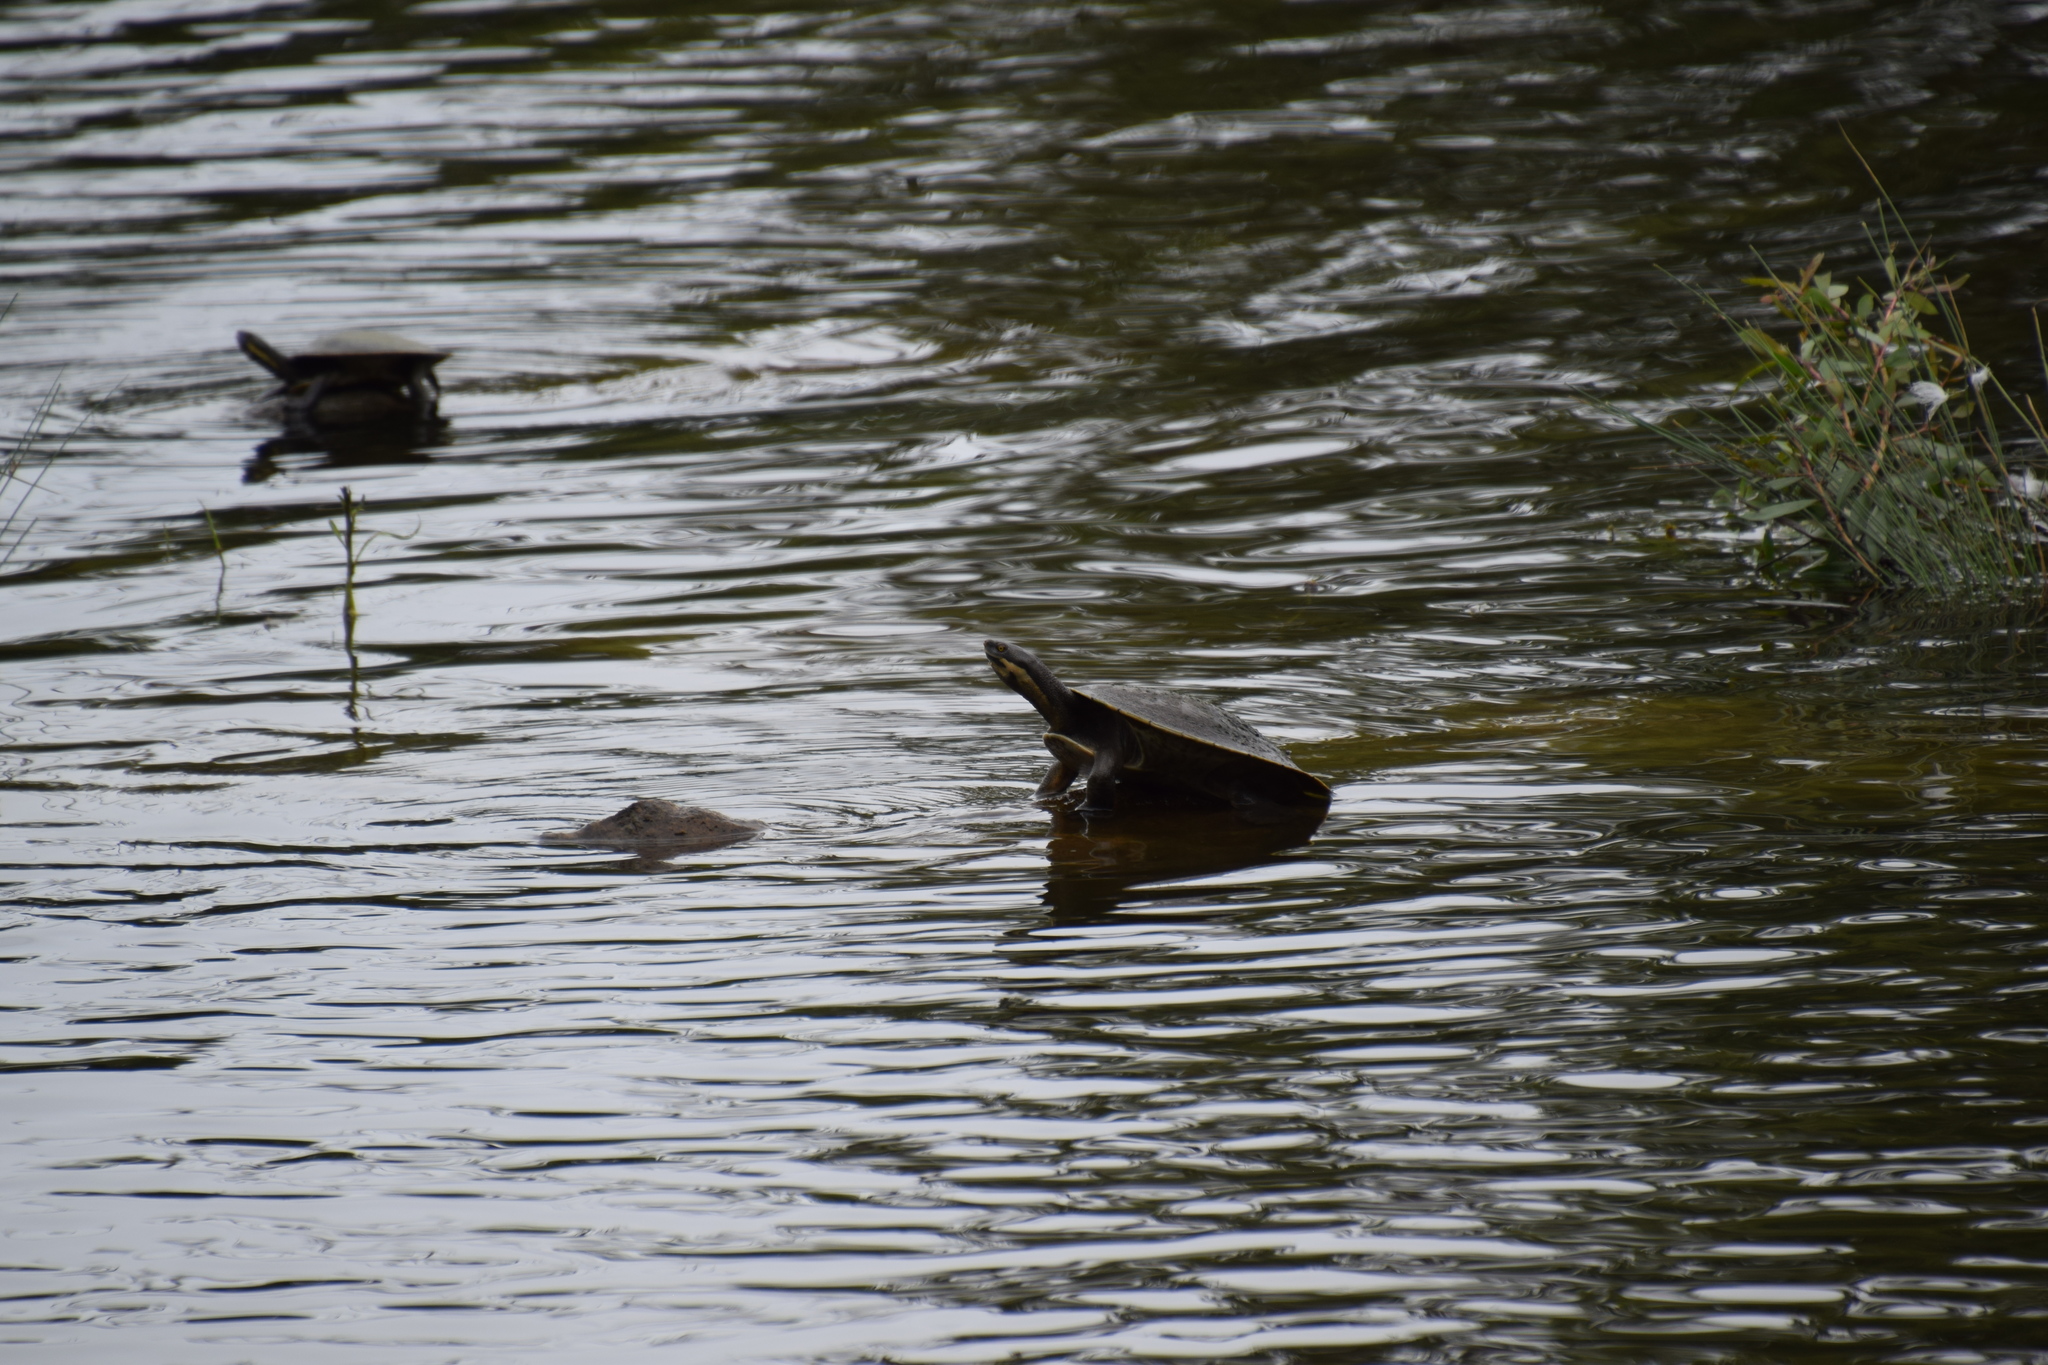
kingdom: Animalia
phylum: Chordata
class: Testudines
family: Chelidae
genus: Emydura
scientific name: Emydura macquarii
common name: Murray river turtle
